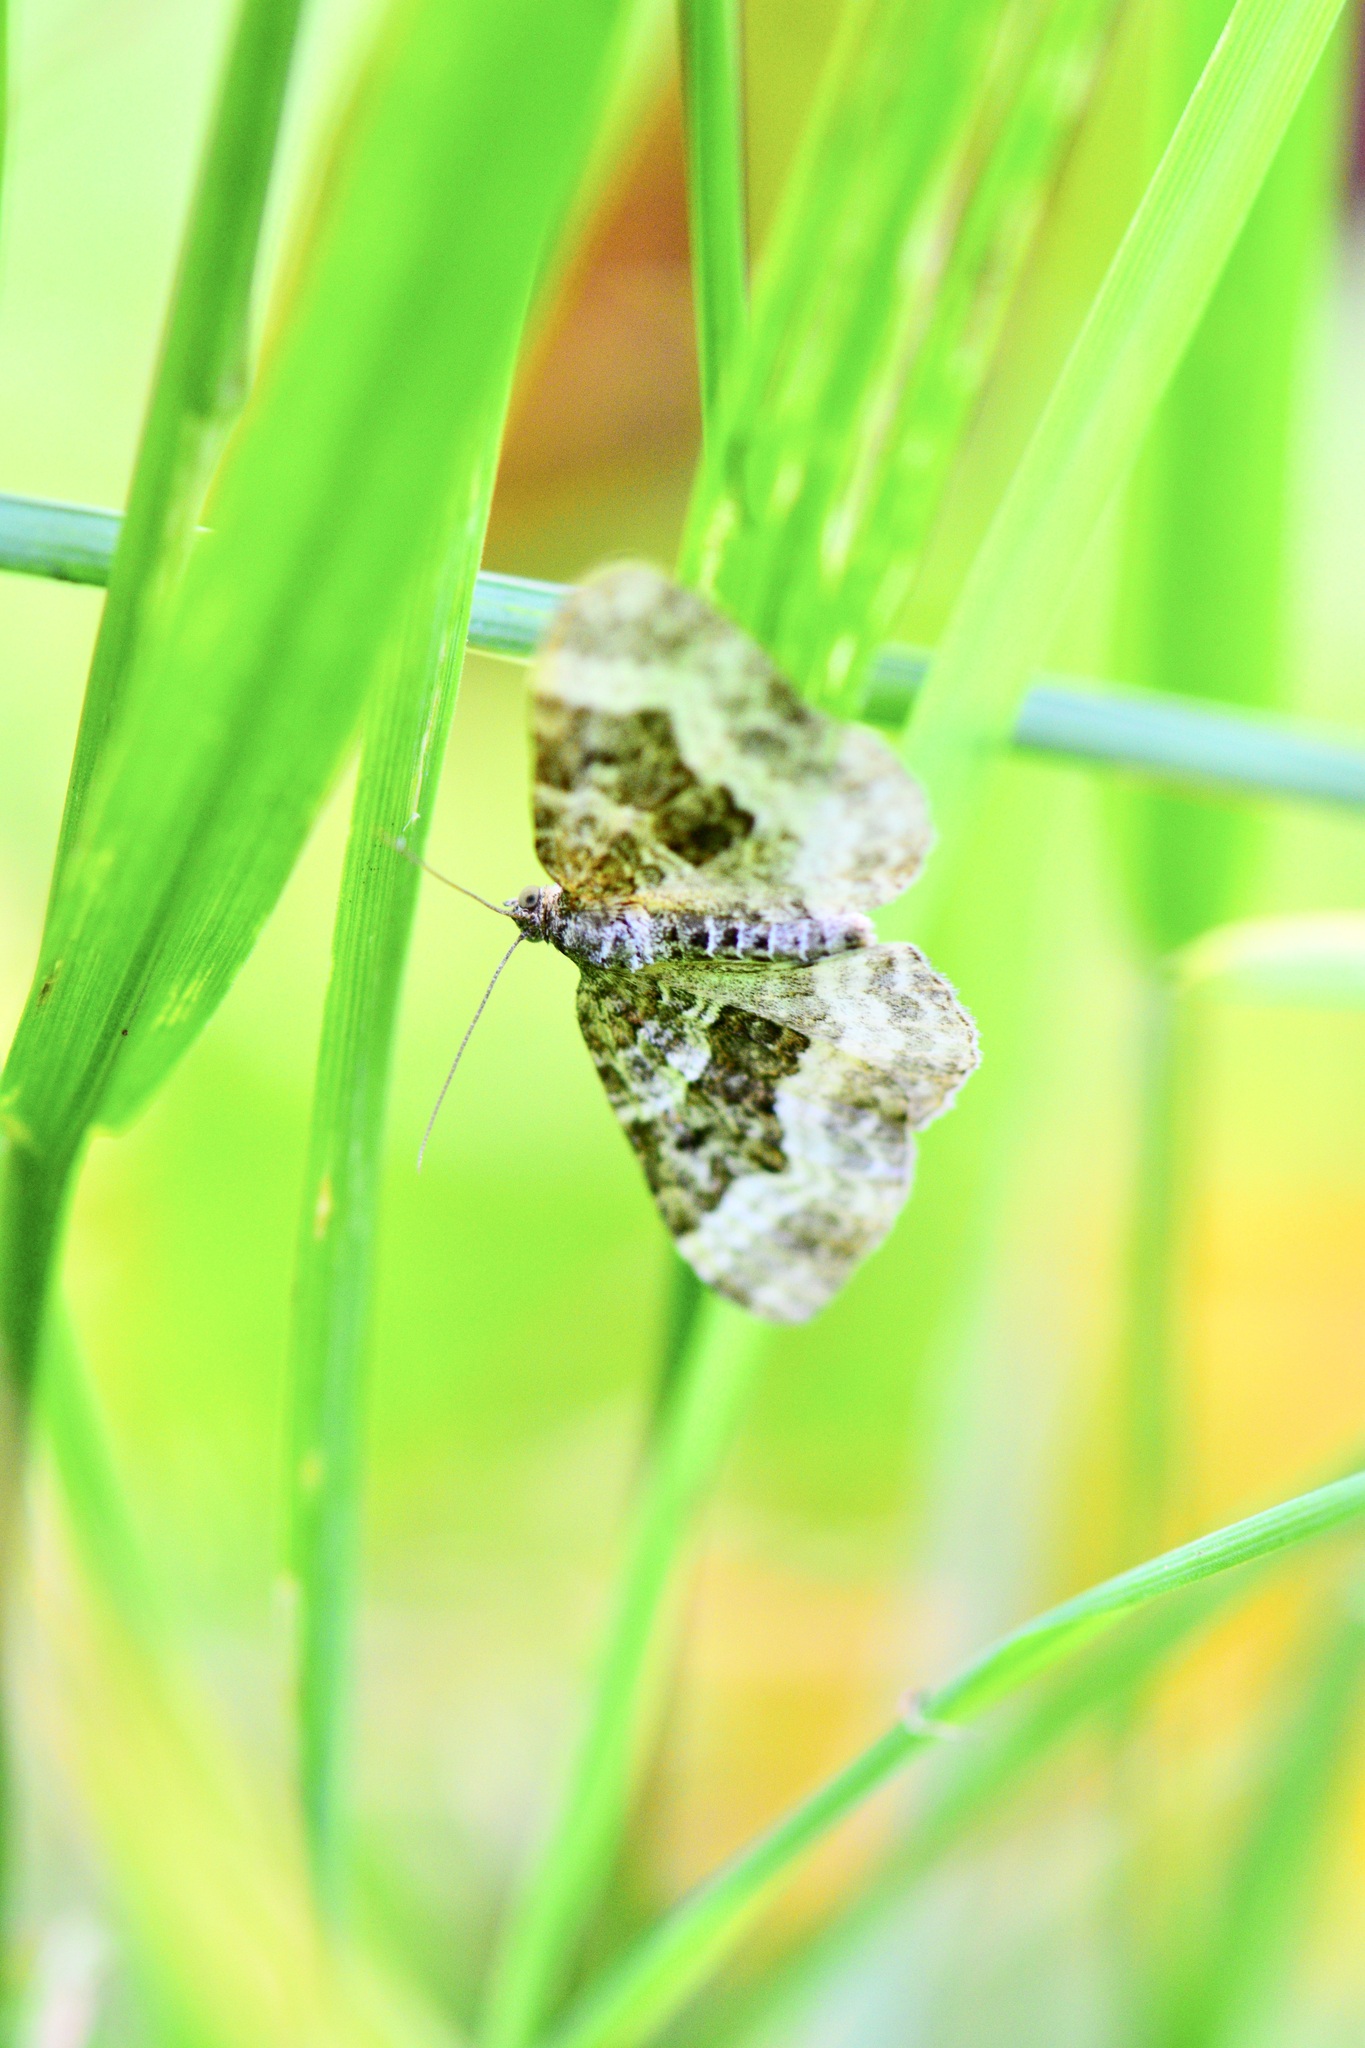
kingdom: Animalia
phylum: Arthropoda
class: Insecta
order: Lepidoptera
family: Geometridae
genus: Epirrhoe
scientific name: Epirrhoe alternata
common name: Common carpet
